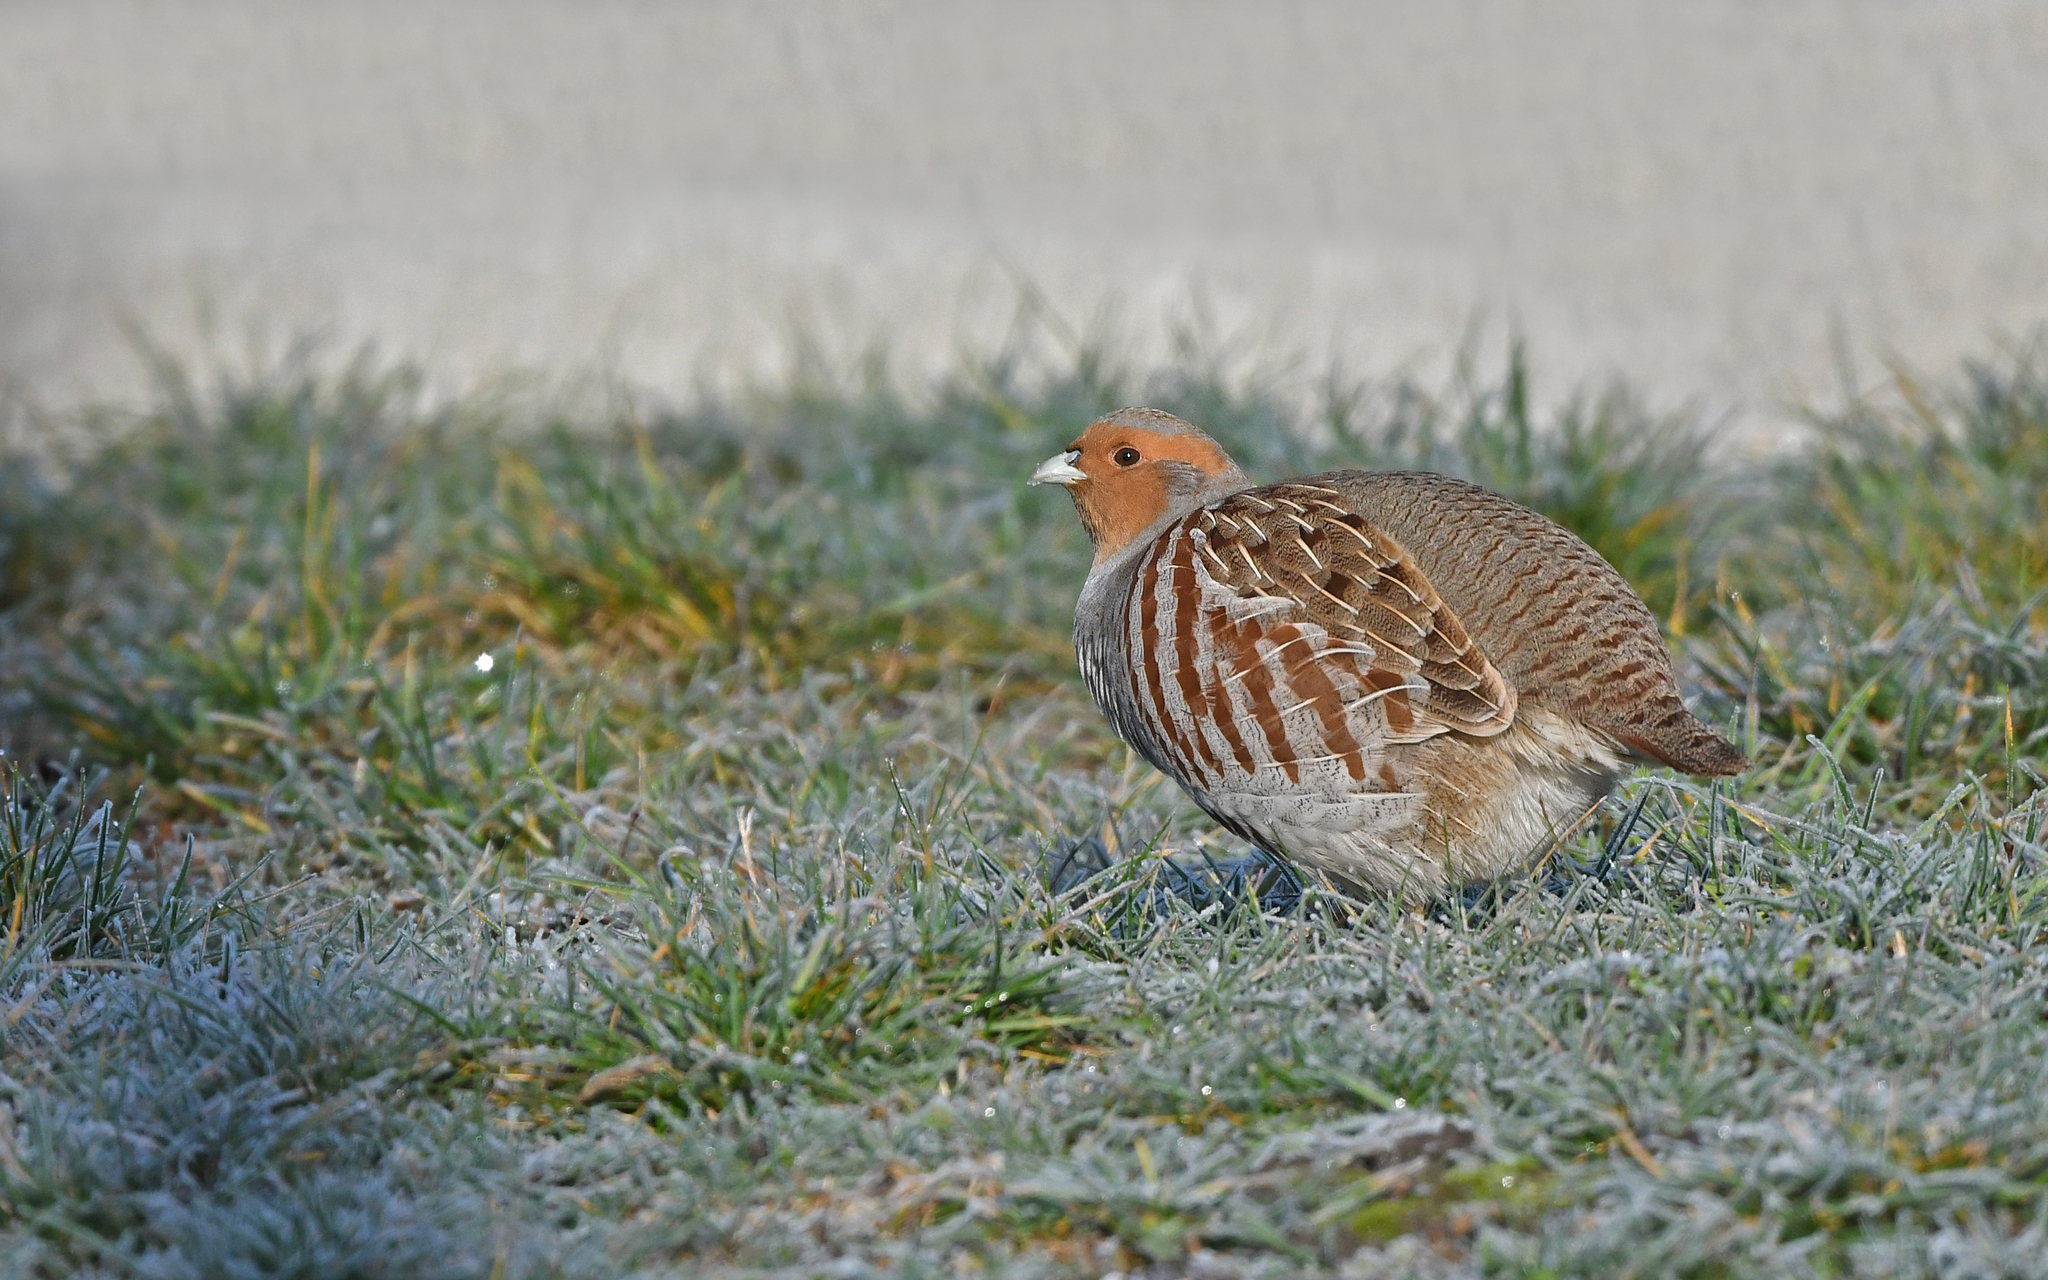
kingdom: Animalia
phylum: Chordata
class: Aves
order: Galliformes
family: Phasianidae
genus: Perdix
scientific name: Perdix perdix
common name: Grey partridge
